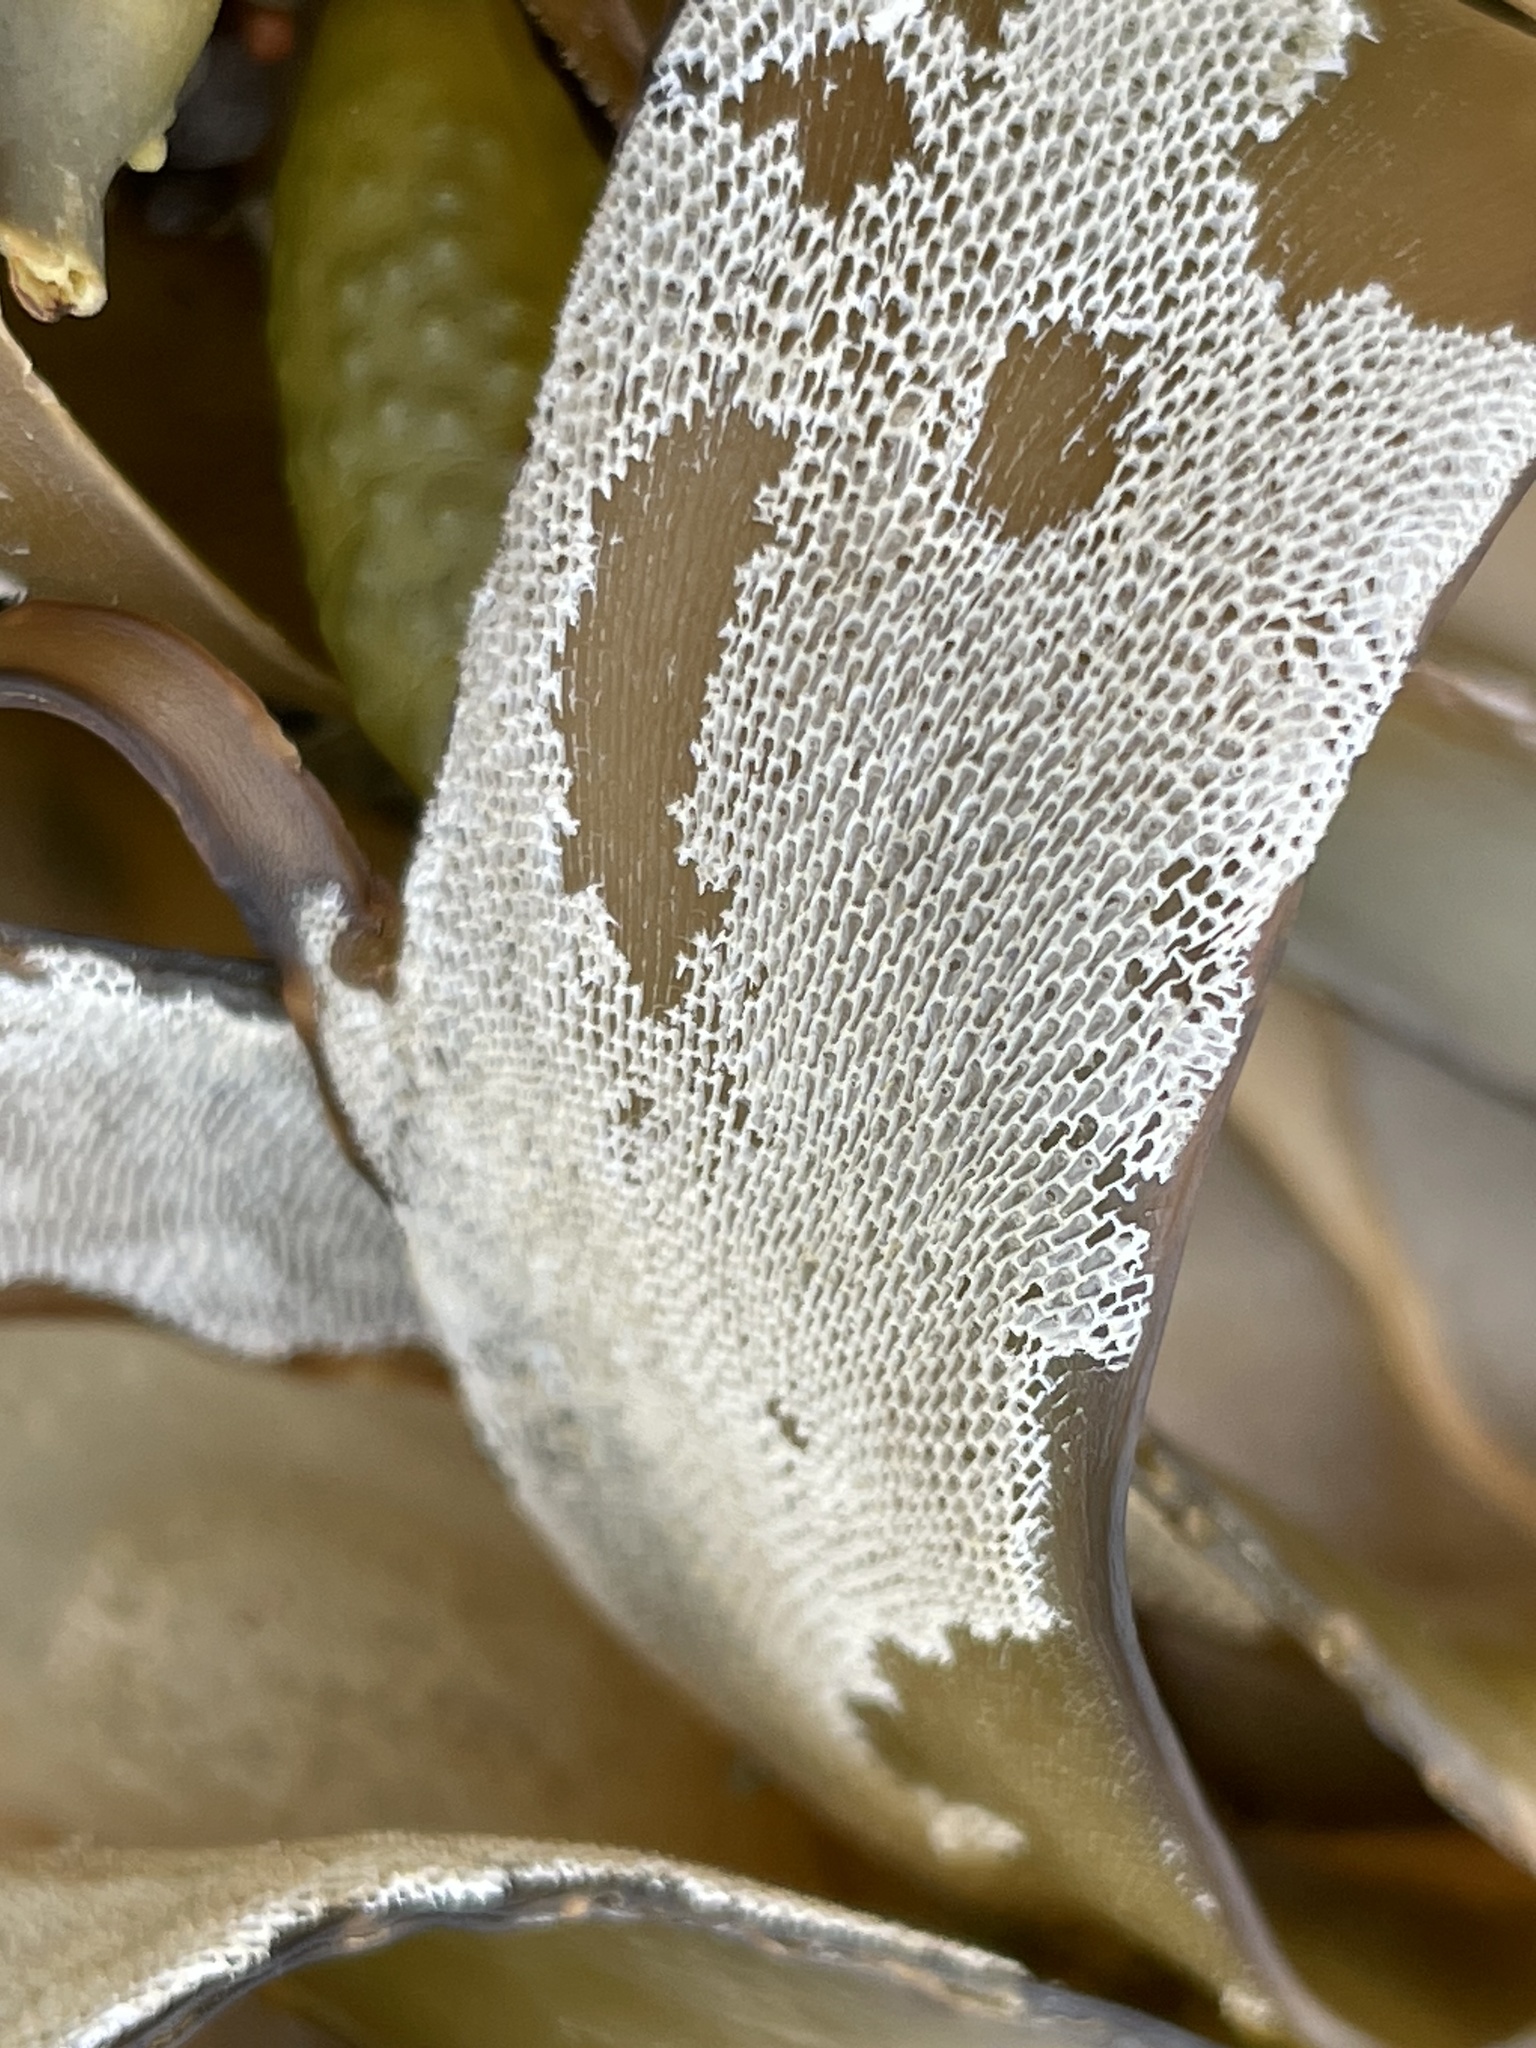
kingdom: Animalia
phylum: Bryozoa
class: Gymnolaemata
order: Cheilostomatida
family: Membraniporidae
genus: Membranipora
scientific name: Membranipora membranacea
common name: Sea mat
